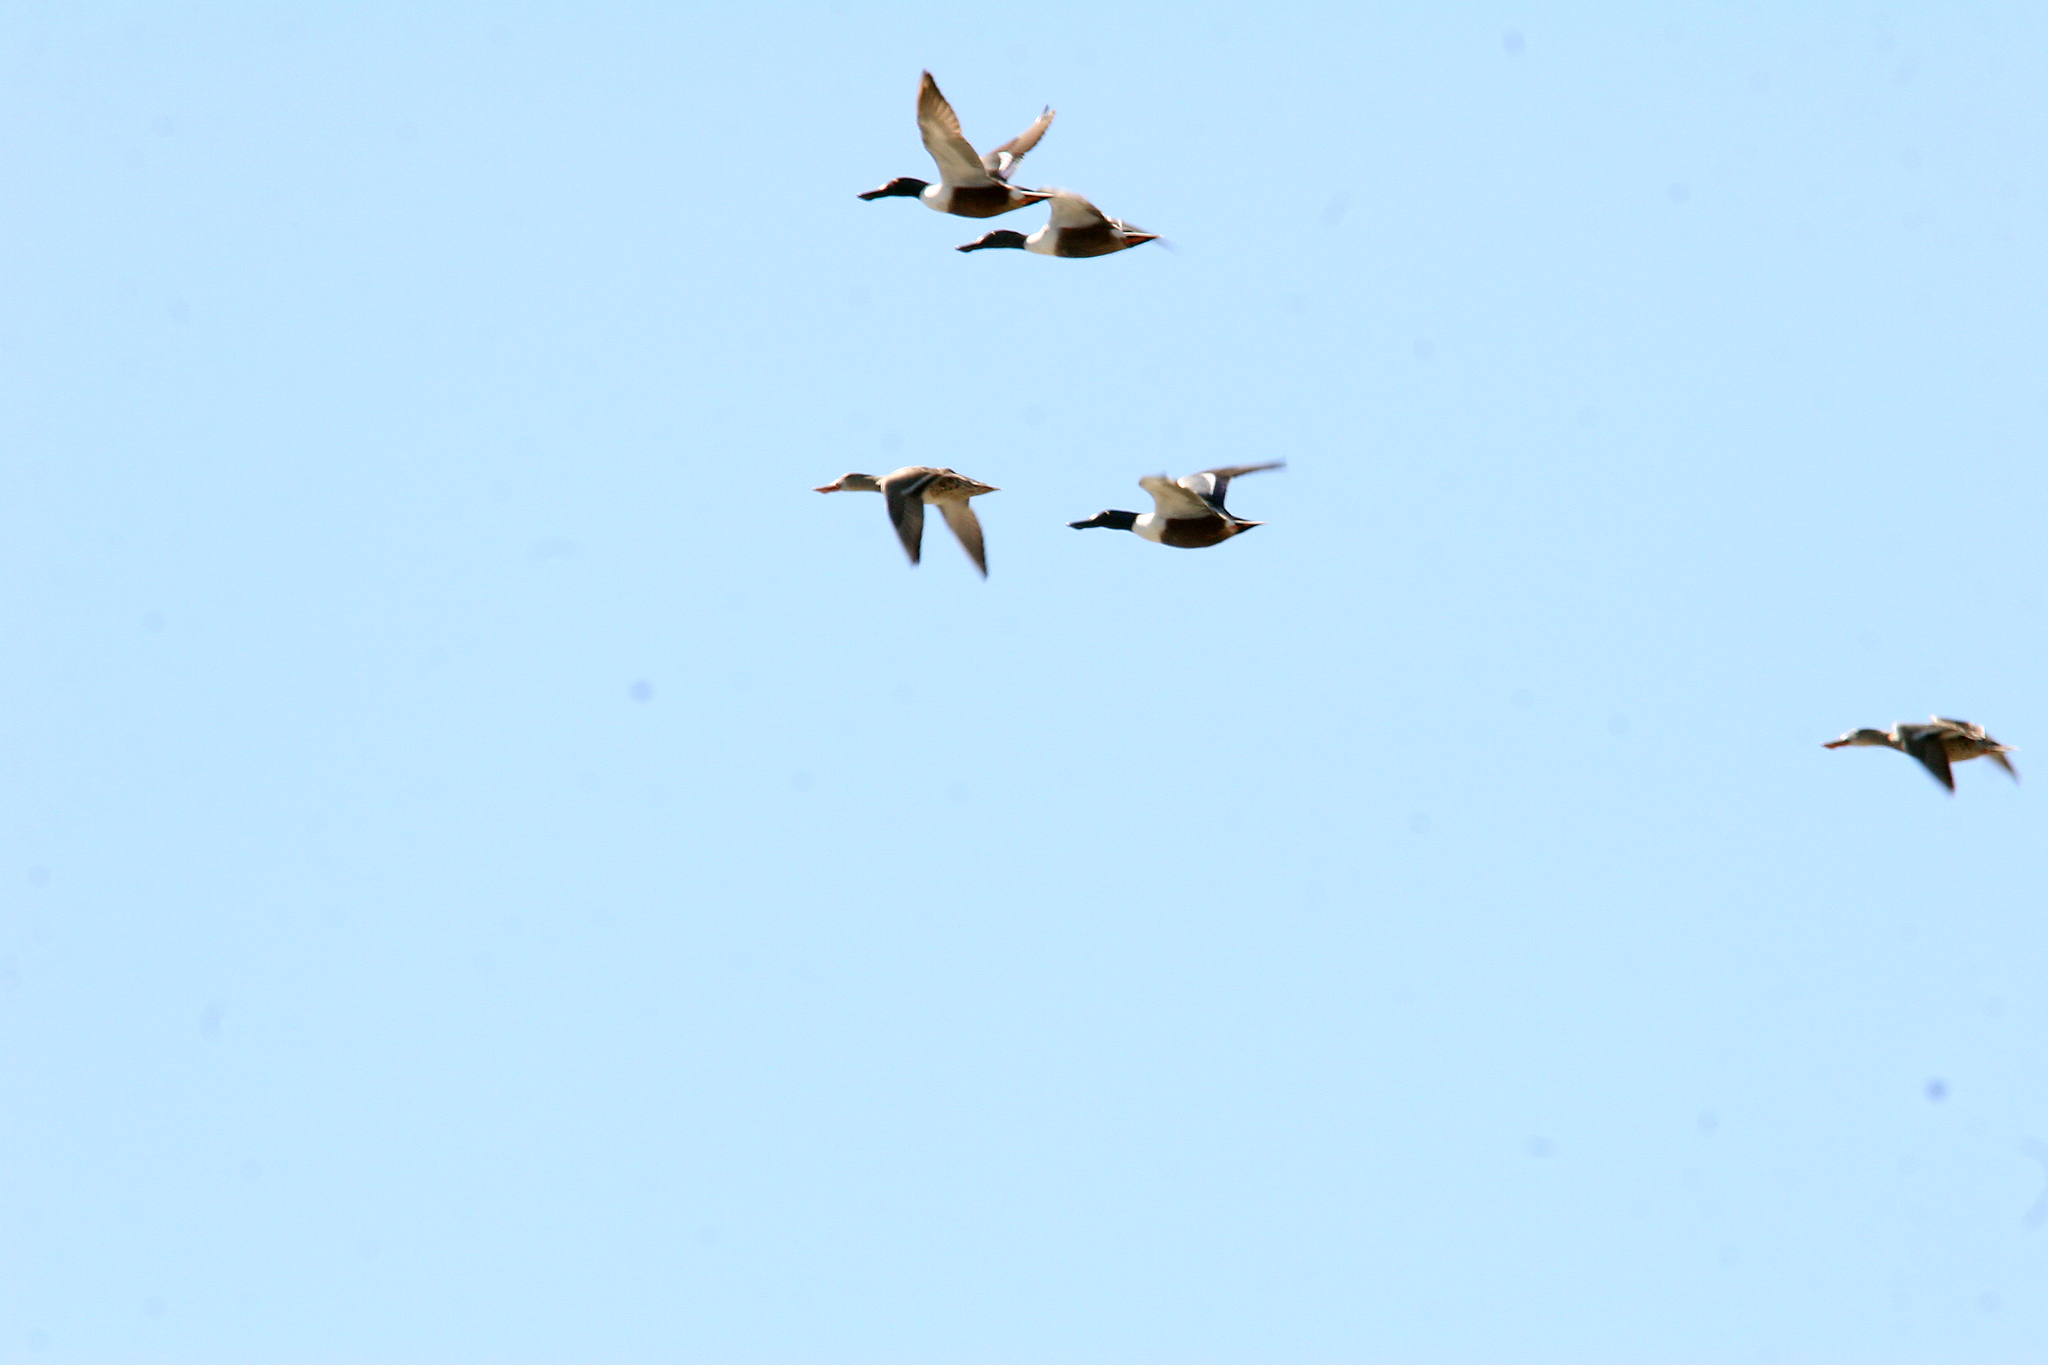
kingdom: Animalia
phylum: Chordata
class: Aves
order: Anseriformes
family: Anatidae
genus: Spatula
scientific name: Spatula clypeata
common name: Northern shoveler
